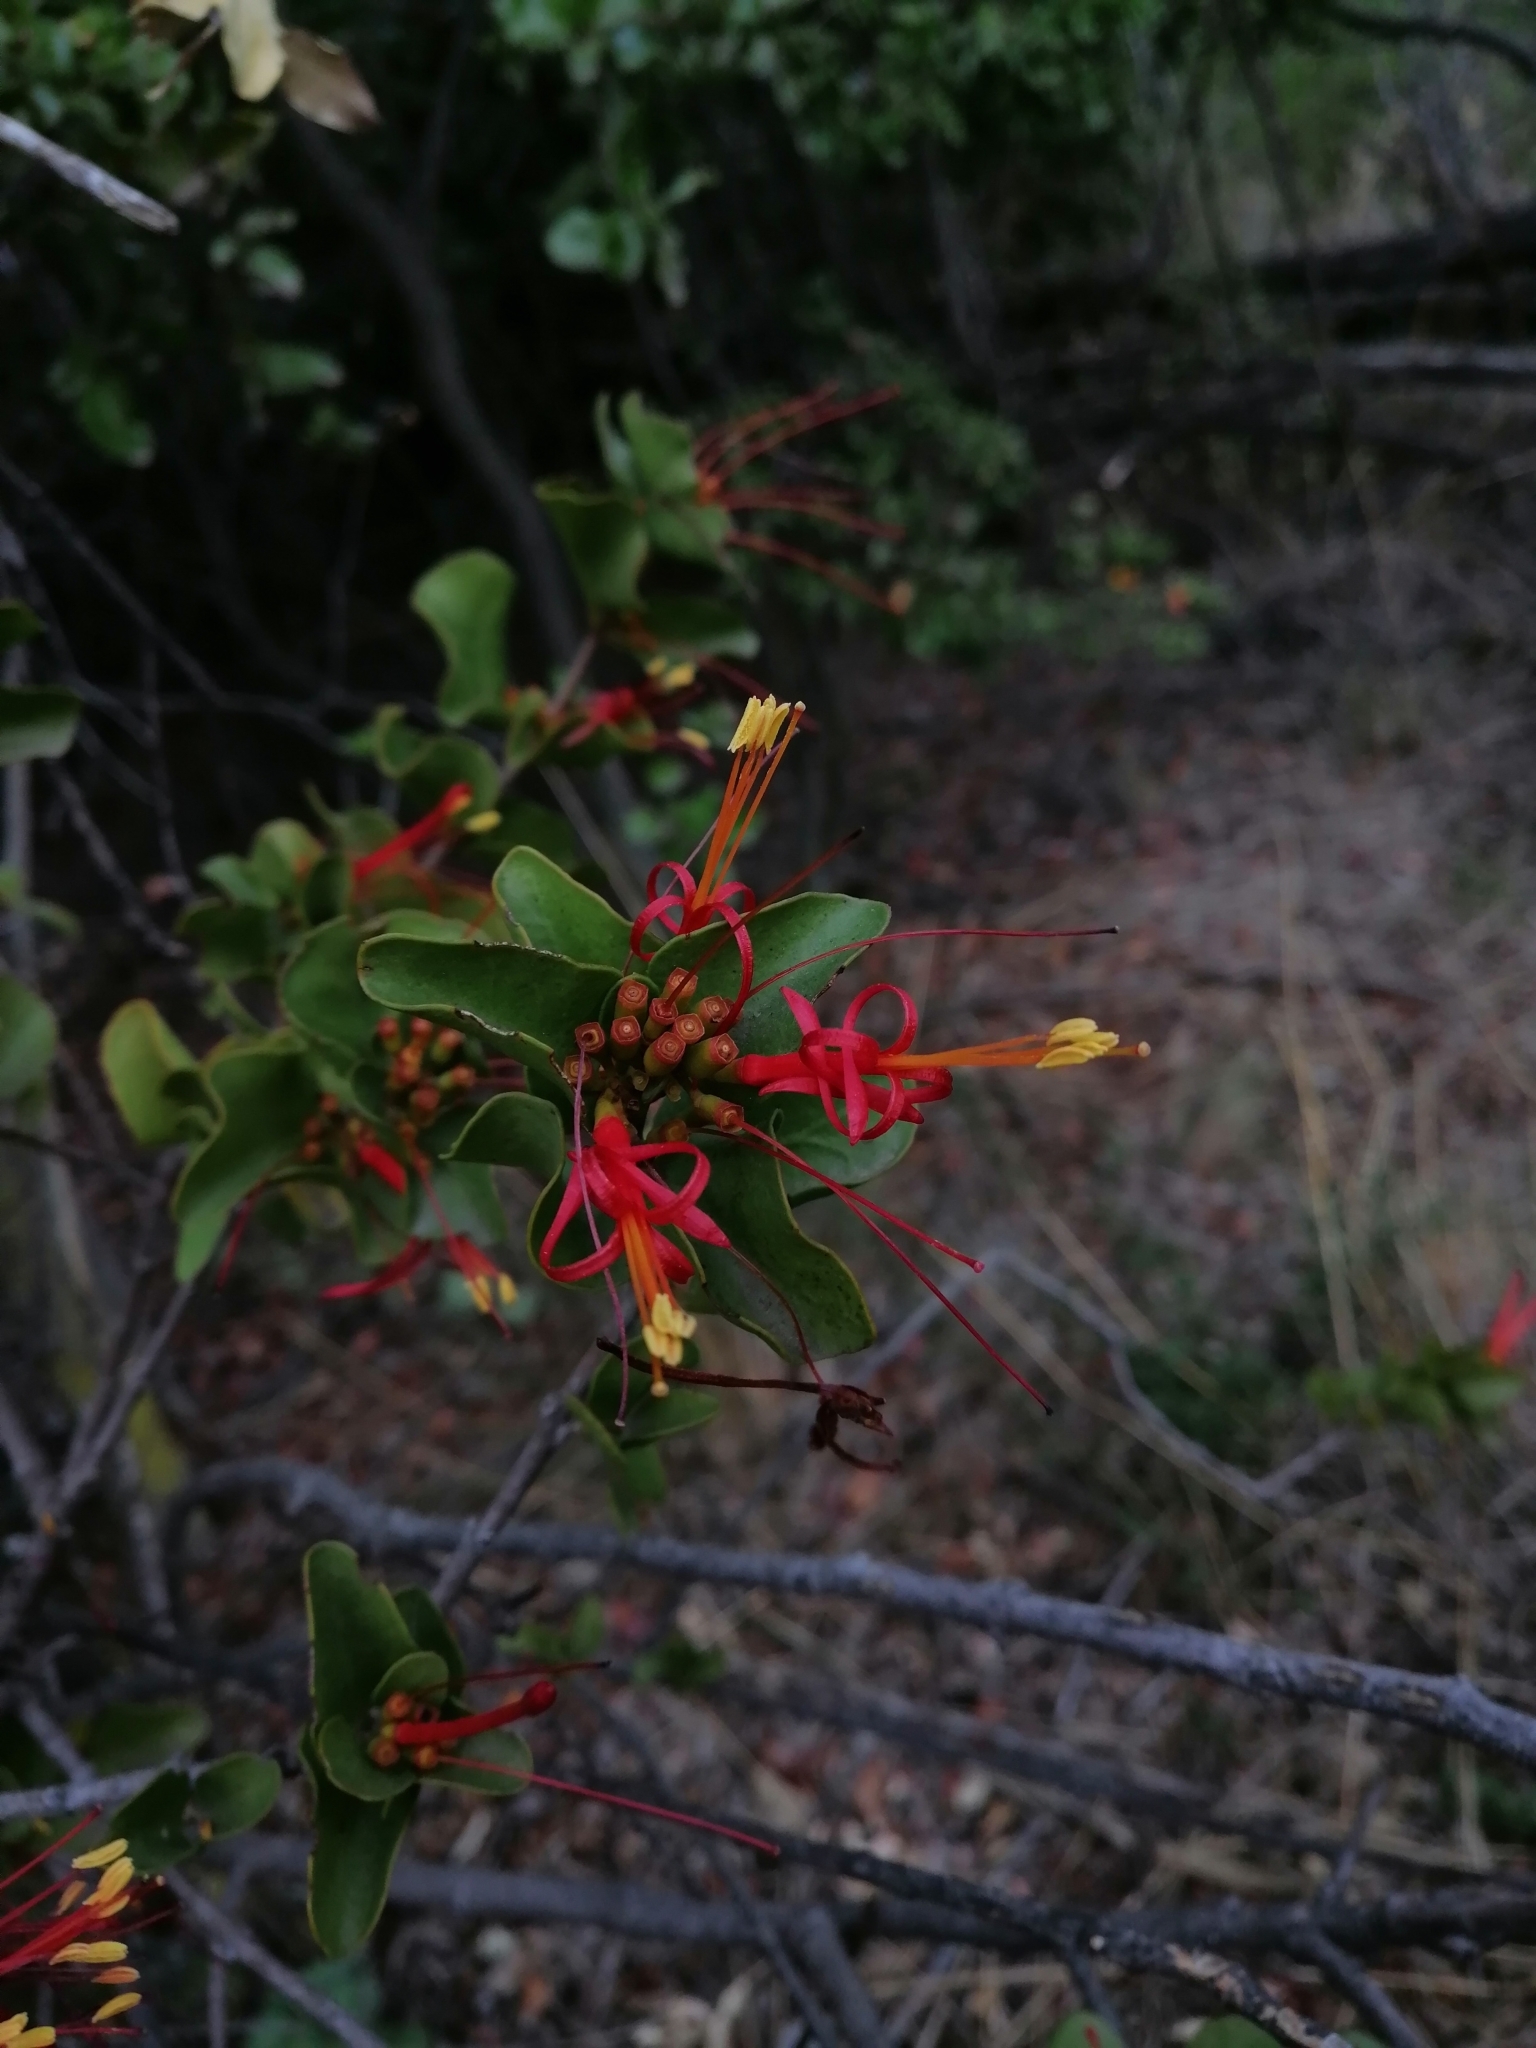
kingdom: Plantae
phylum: Tracheophyta
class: Magnoliopsida
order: Santalales
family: Loranthaceae
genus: Tristerix
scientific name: Tristerix corymbosus
